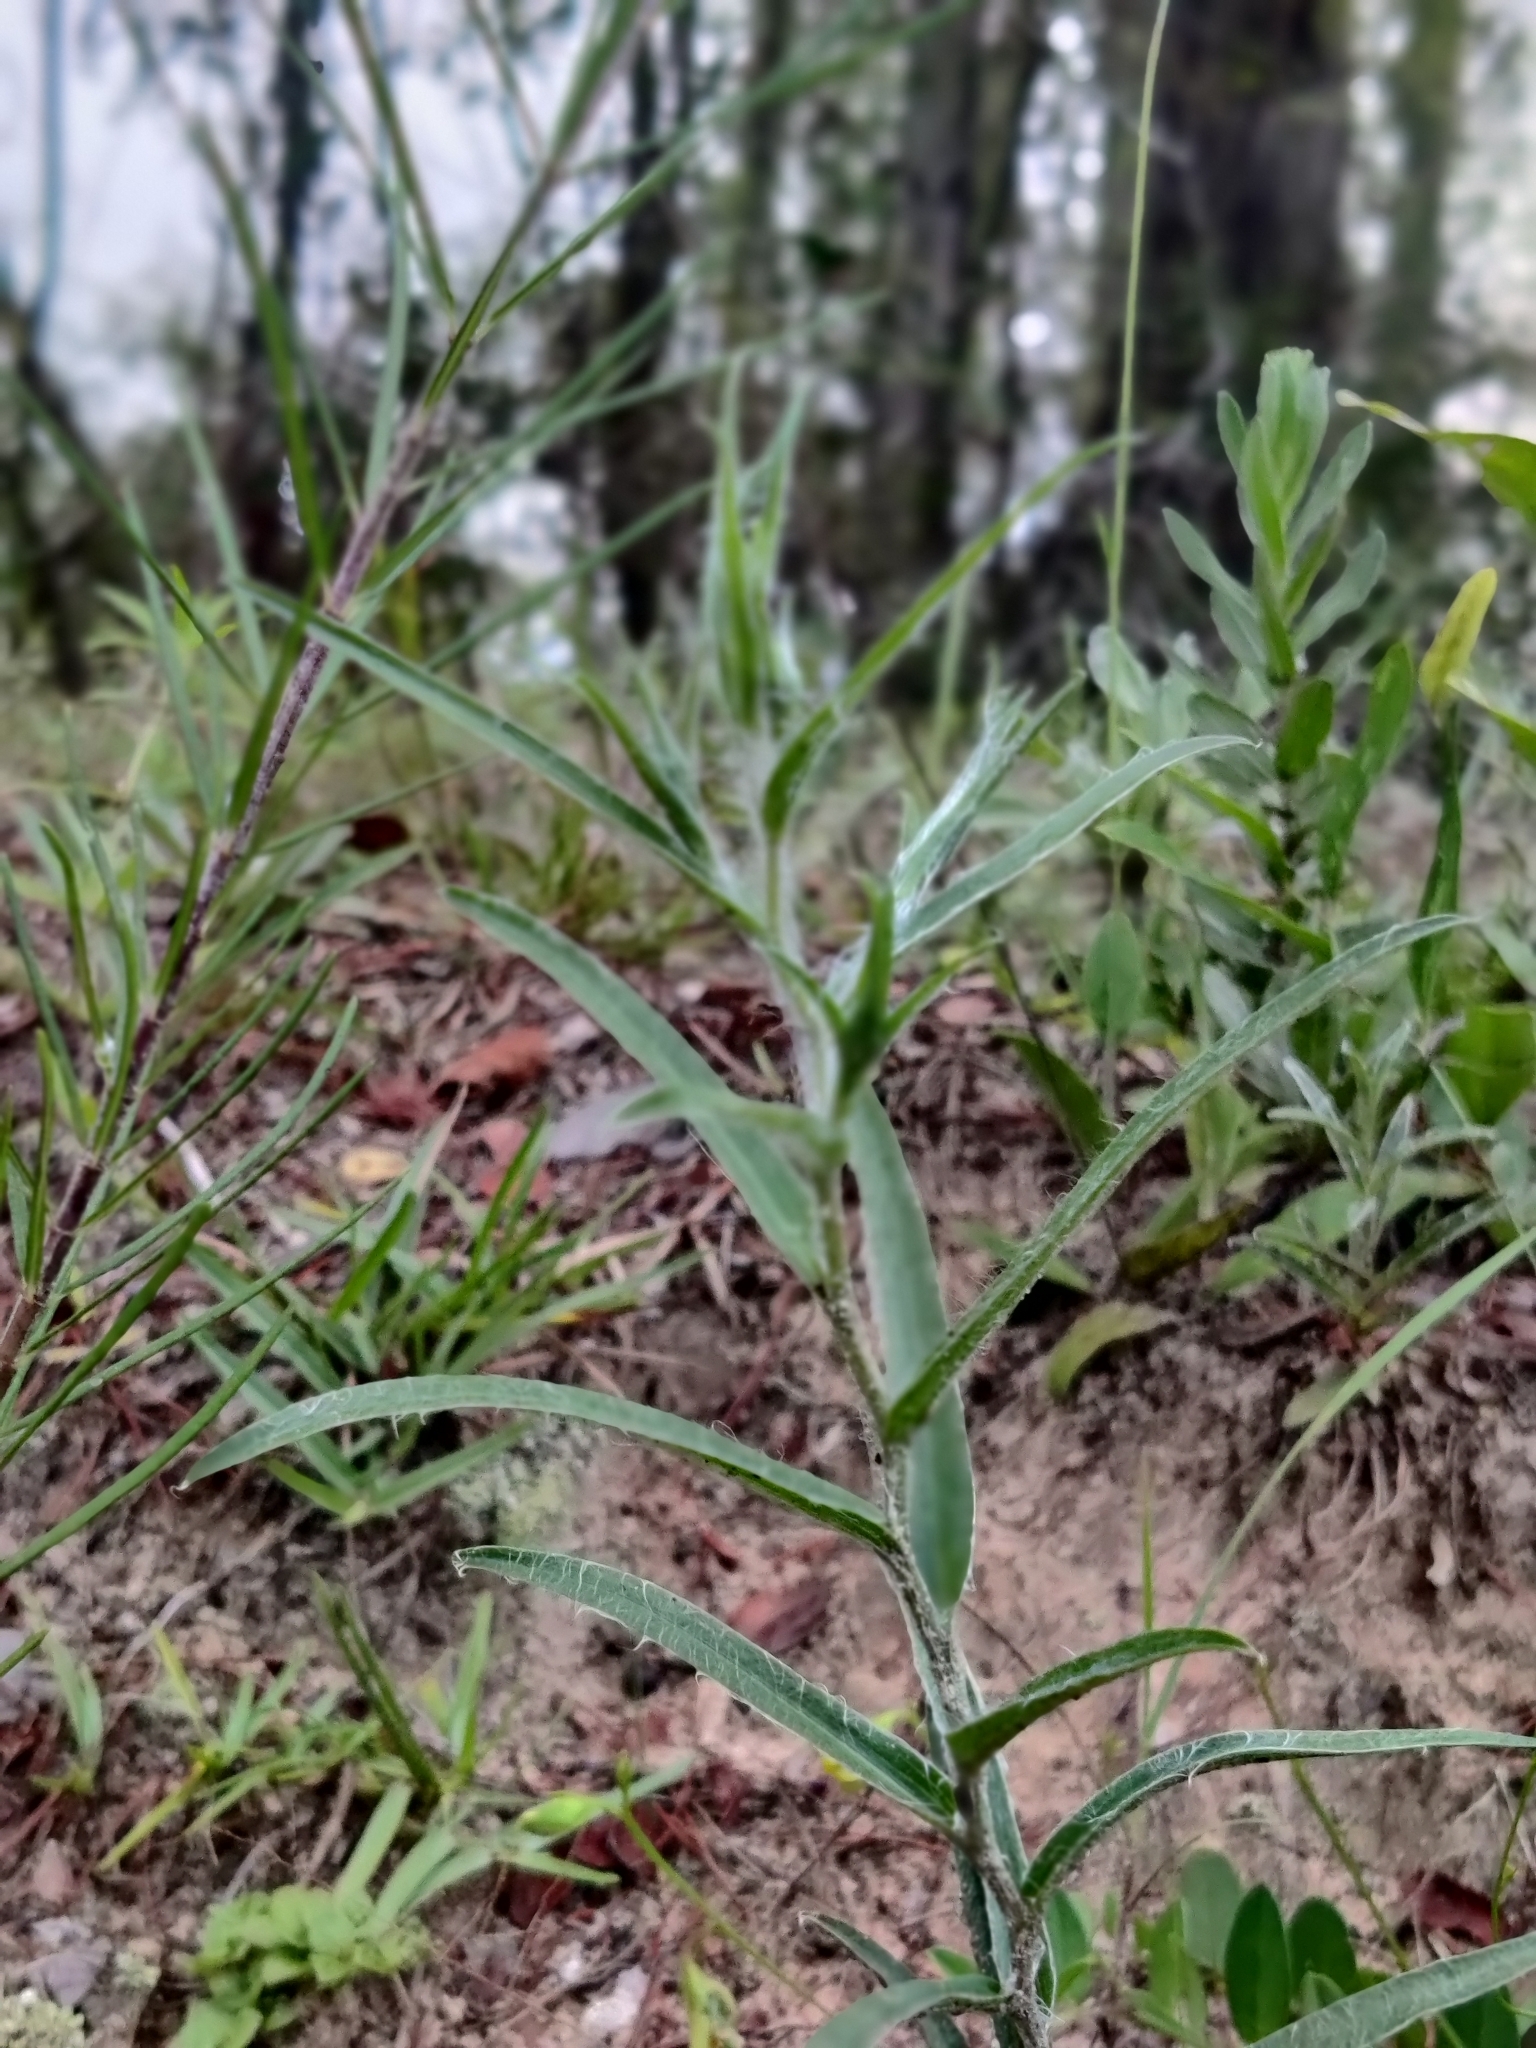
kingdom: Plantae
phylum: Tracheophyta
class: Magnoliopsida
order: Asterales
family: Asteraceae
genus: Pityopsis
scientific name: Pityopsis flexuosa
